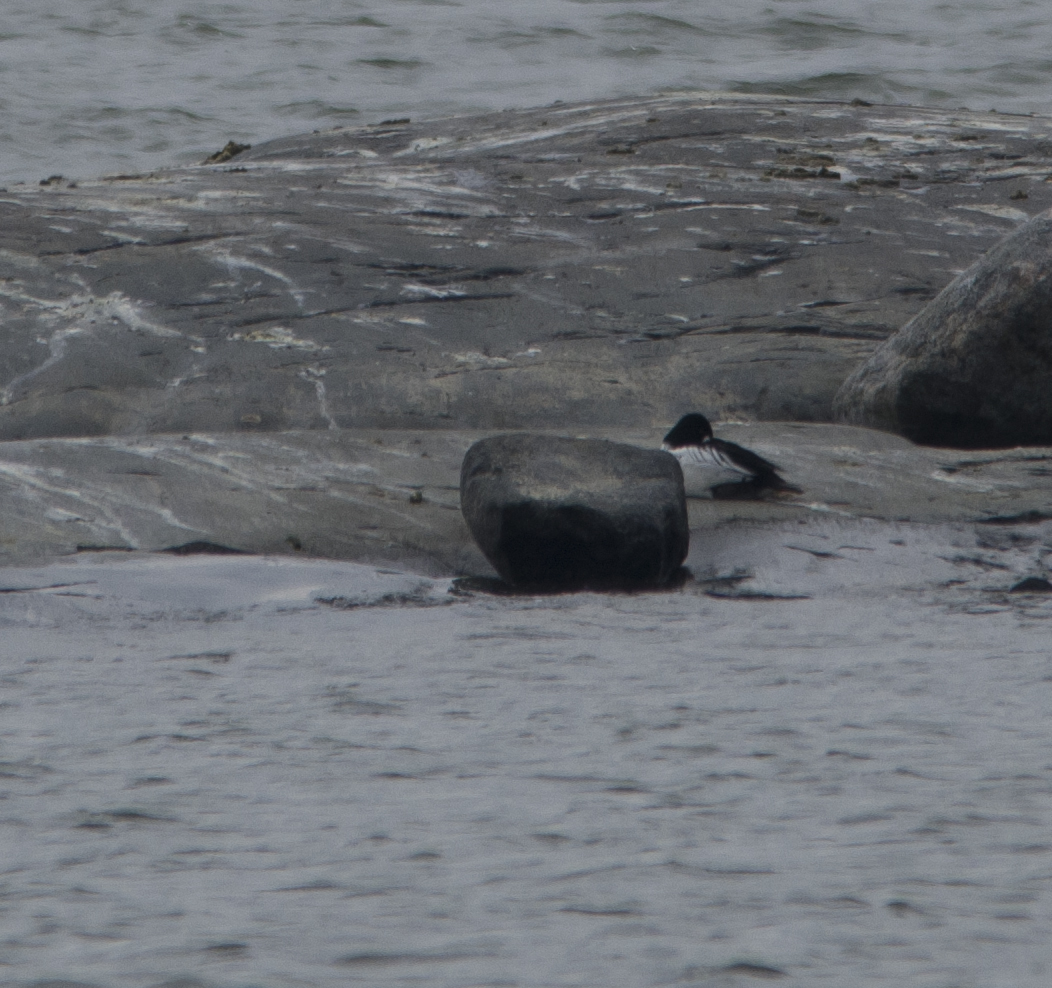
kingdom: Animalia
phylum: Chordata
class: Aves
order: Anseriformes
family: Anatidae
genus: Bucephala
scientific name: Bucephala clangula
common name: Common goldeneye
